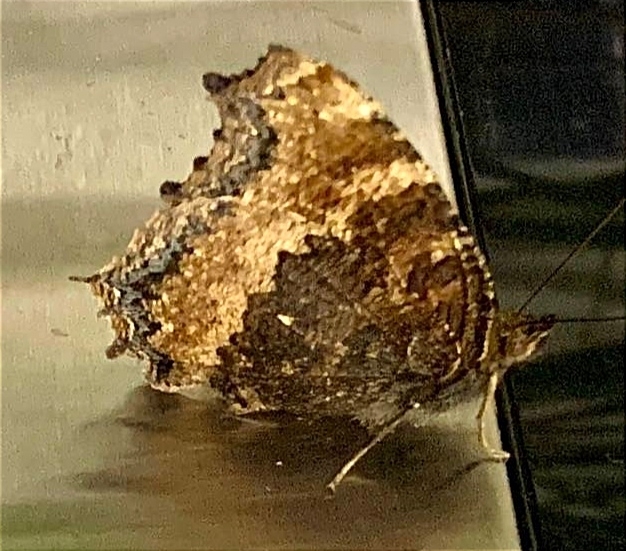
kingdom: Animalia
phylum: Arthropoda
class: Insecta
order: Lepidoptera
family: Nymphalidae
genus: Nymphalis
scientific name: Nymphalis xanthomelas
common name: Scarce tortoiseshell
